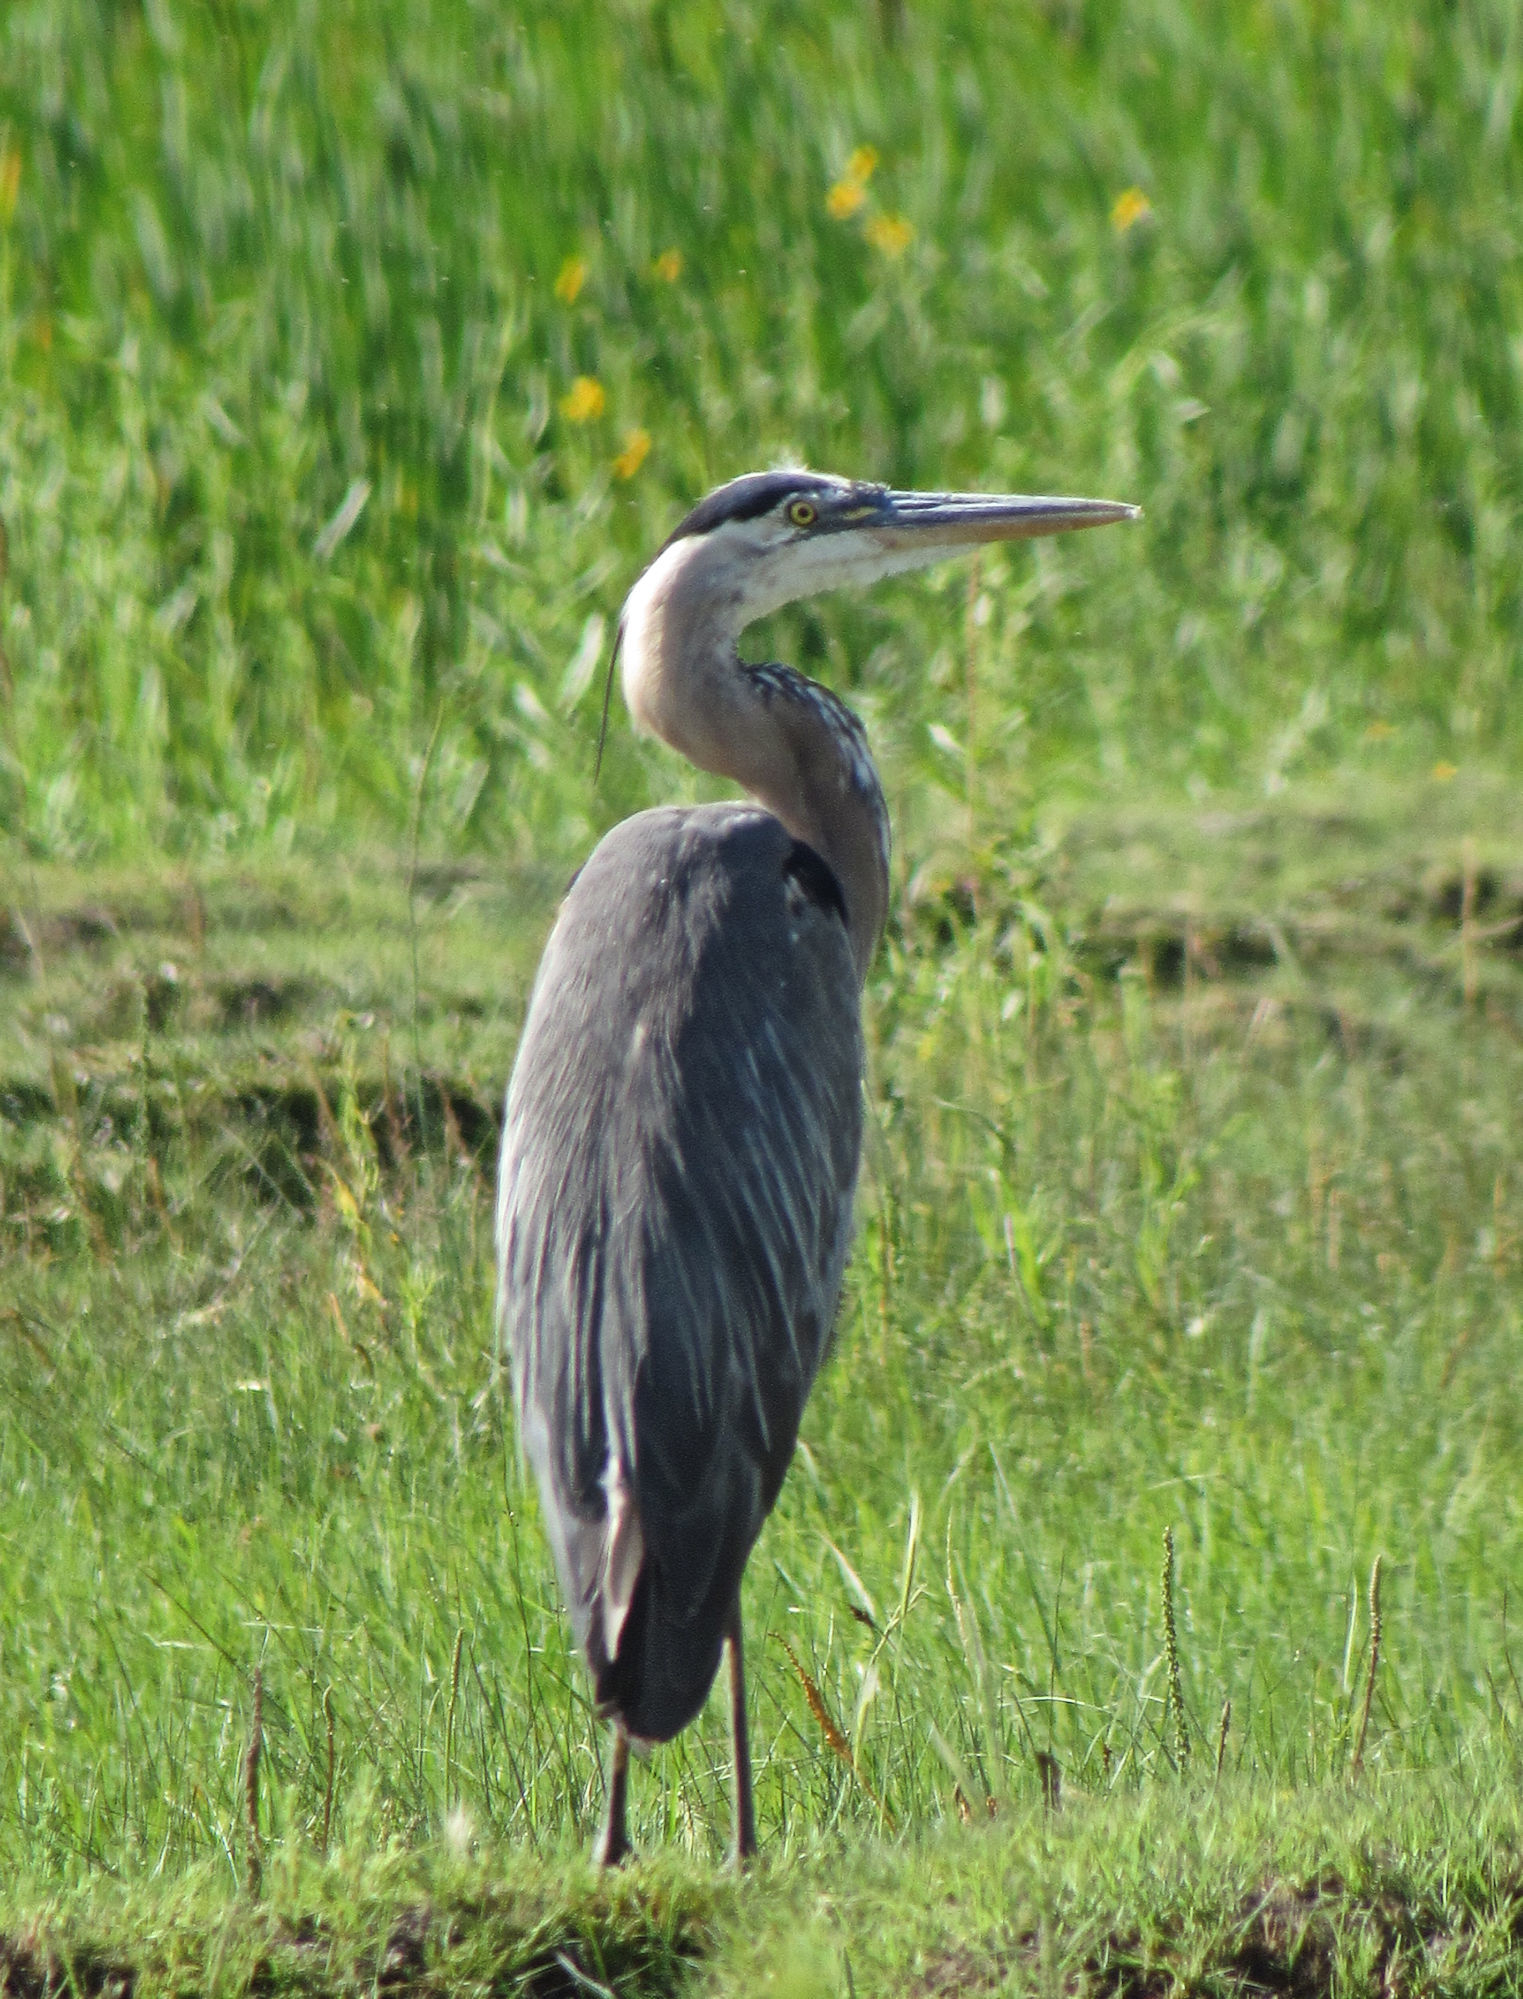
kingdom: Animalia
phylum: Chordata
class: Aves
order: Pelecaniformes
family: Ardeidae
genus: Ardea
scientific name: Ardea herodias
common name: Great blue heron
